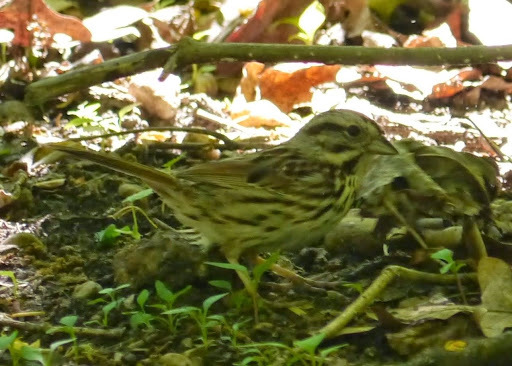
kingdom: Animalia
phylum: Chordata
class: Aves
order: Passeriformes
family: Passerellidae
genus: Melospiza
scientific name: Melospiza melodia
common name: Song sparrow
